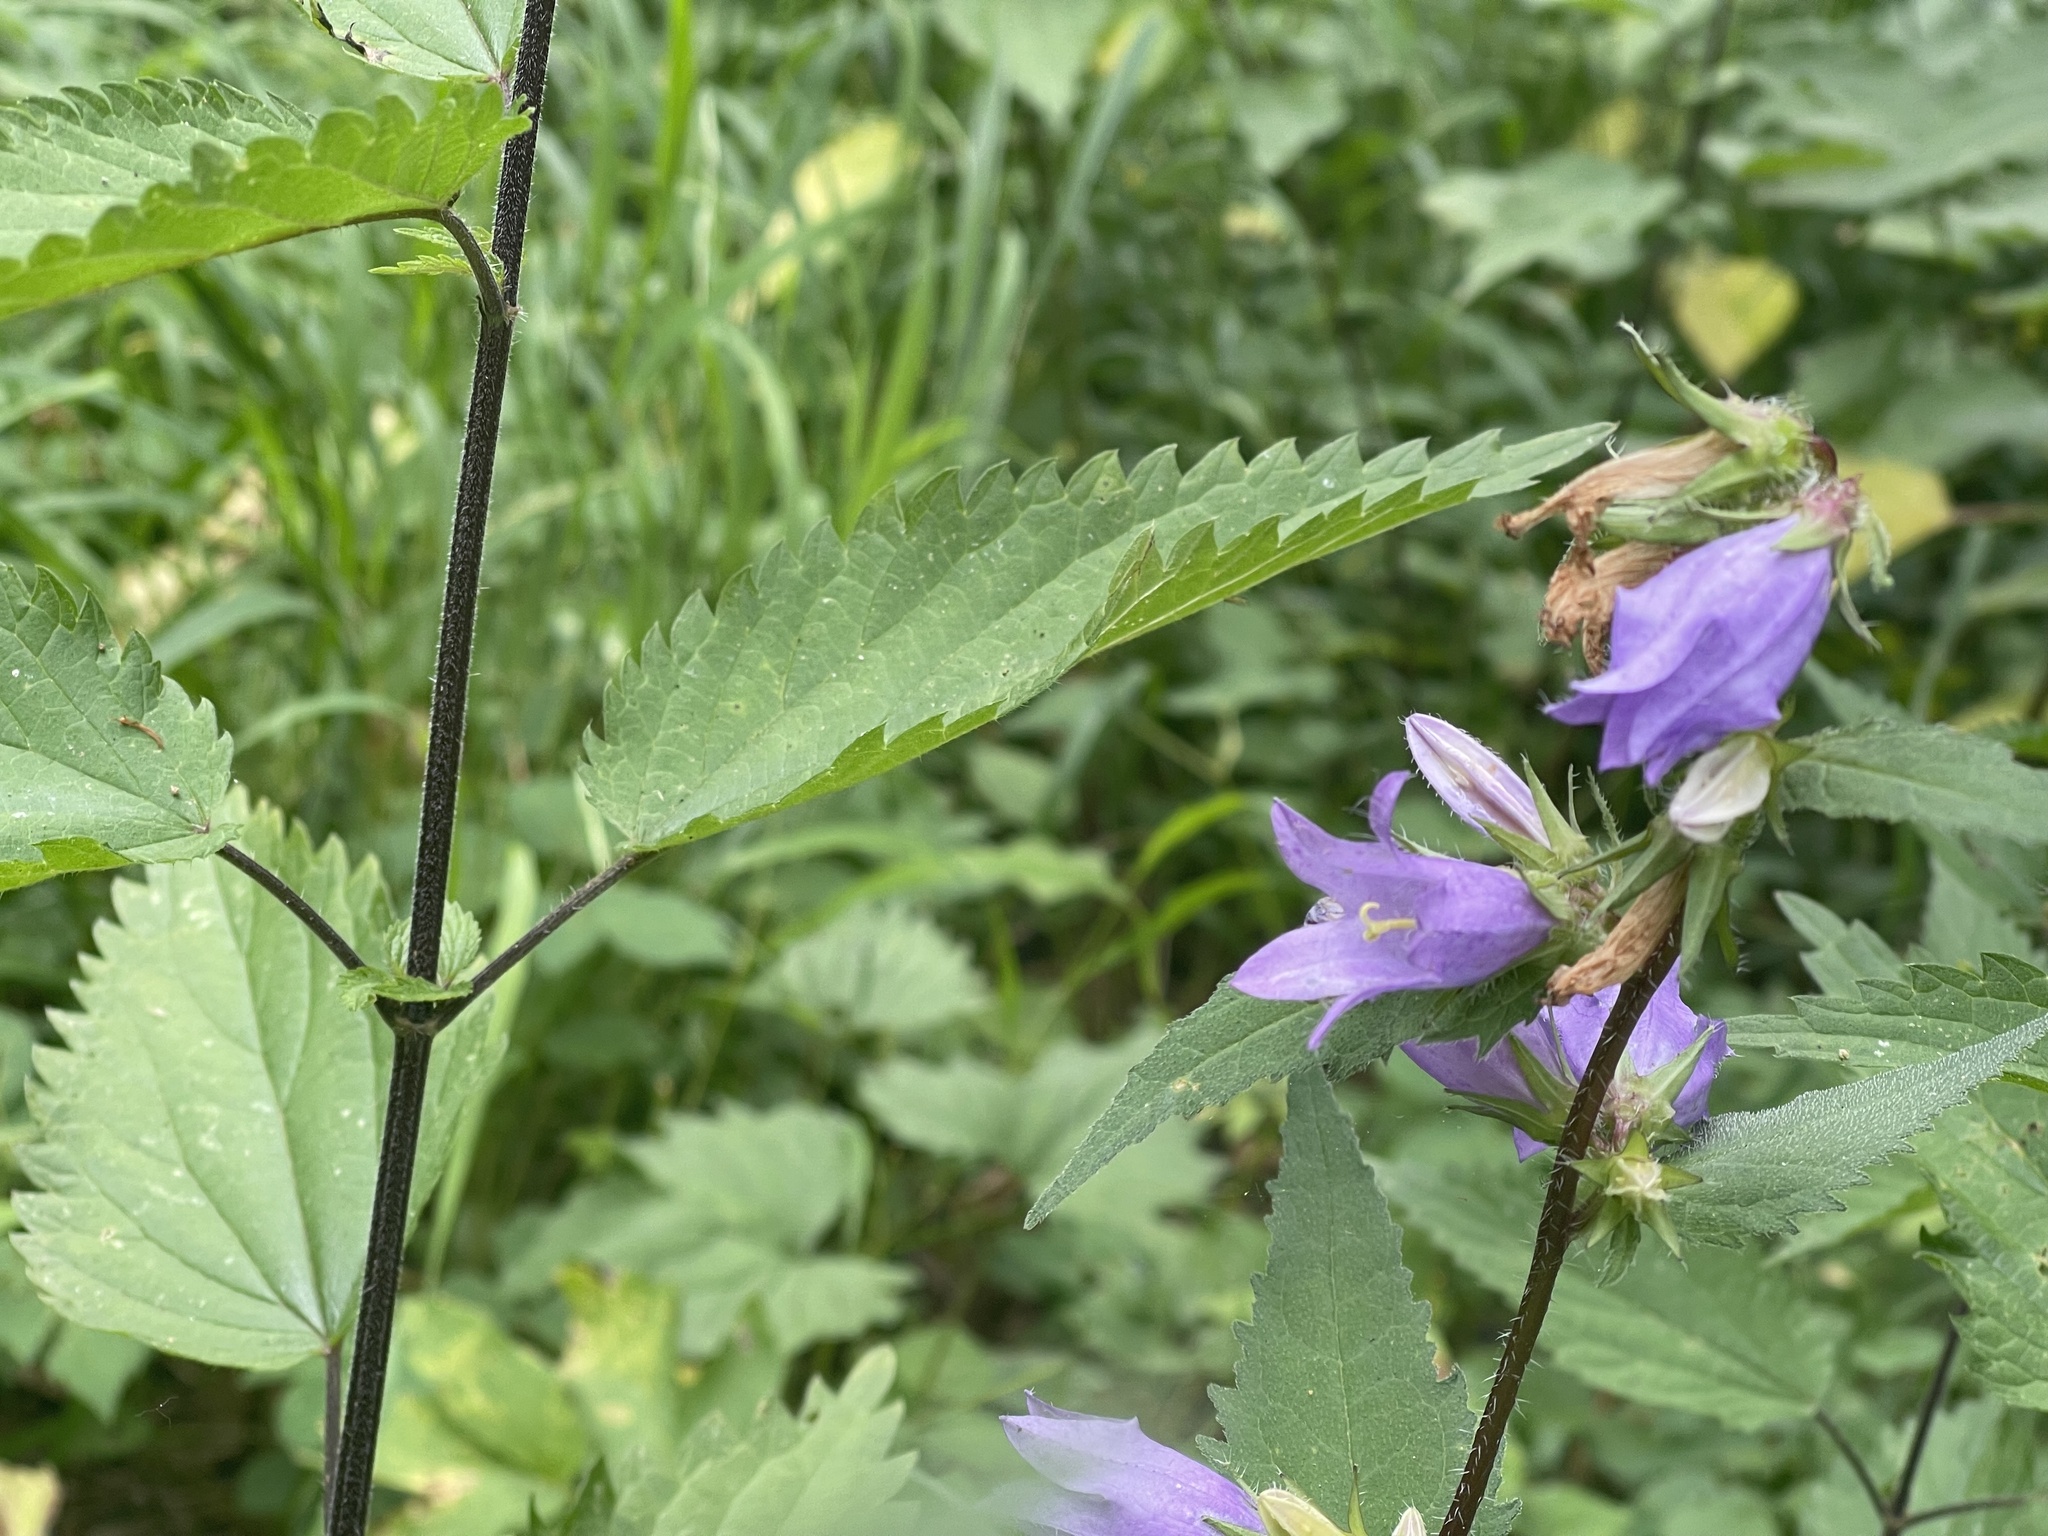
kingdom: Plantae
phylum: Tracheophyta
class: Magnoliopsida
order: Asterales
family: Campanulaceae
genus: Campanula
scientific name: Campanula trachelium
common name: Nettle-leaved bellflower
